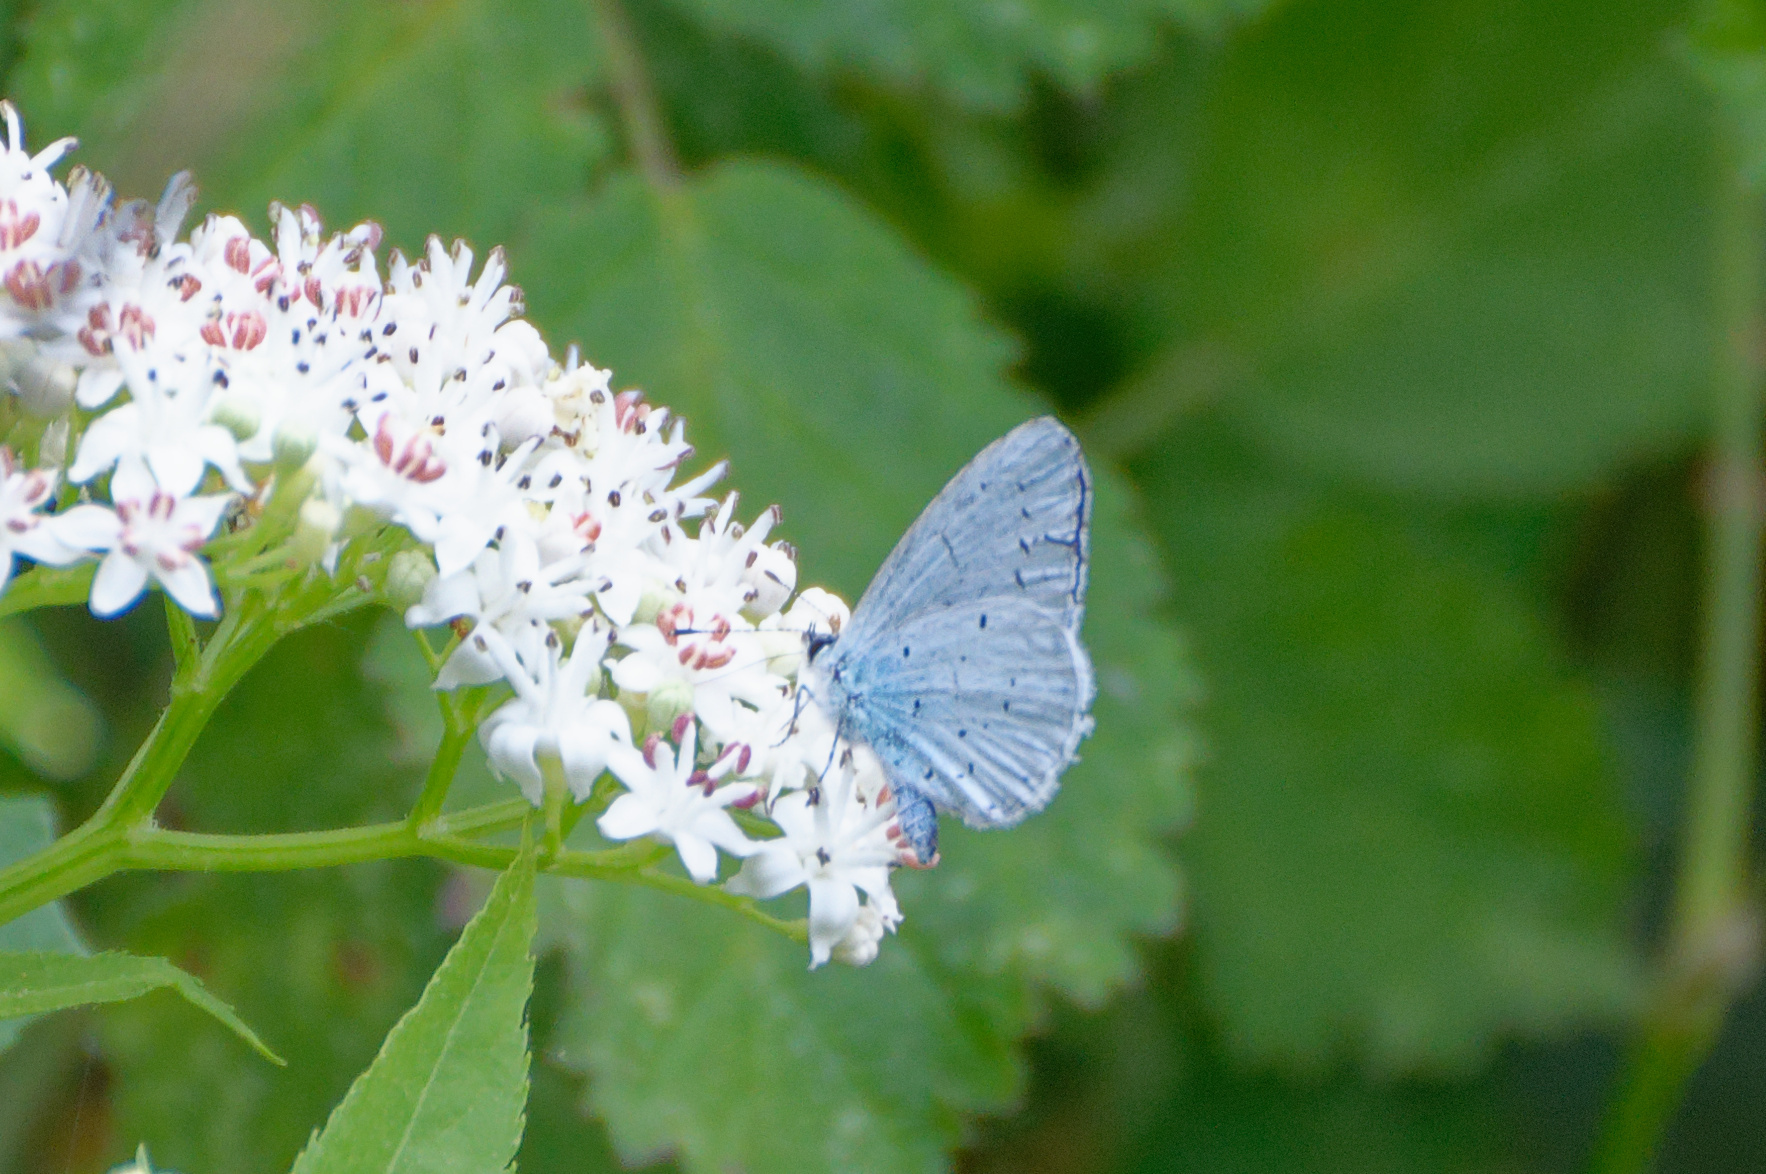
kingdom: Animalia
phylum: Arthropoda
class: Insecta
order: Lepidoptera
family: Lycaenidae
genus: Celastrina
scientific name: Celastrina argiolus
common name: Holly blue
